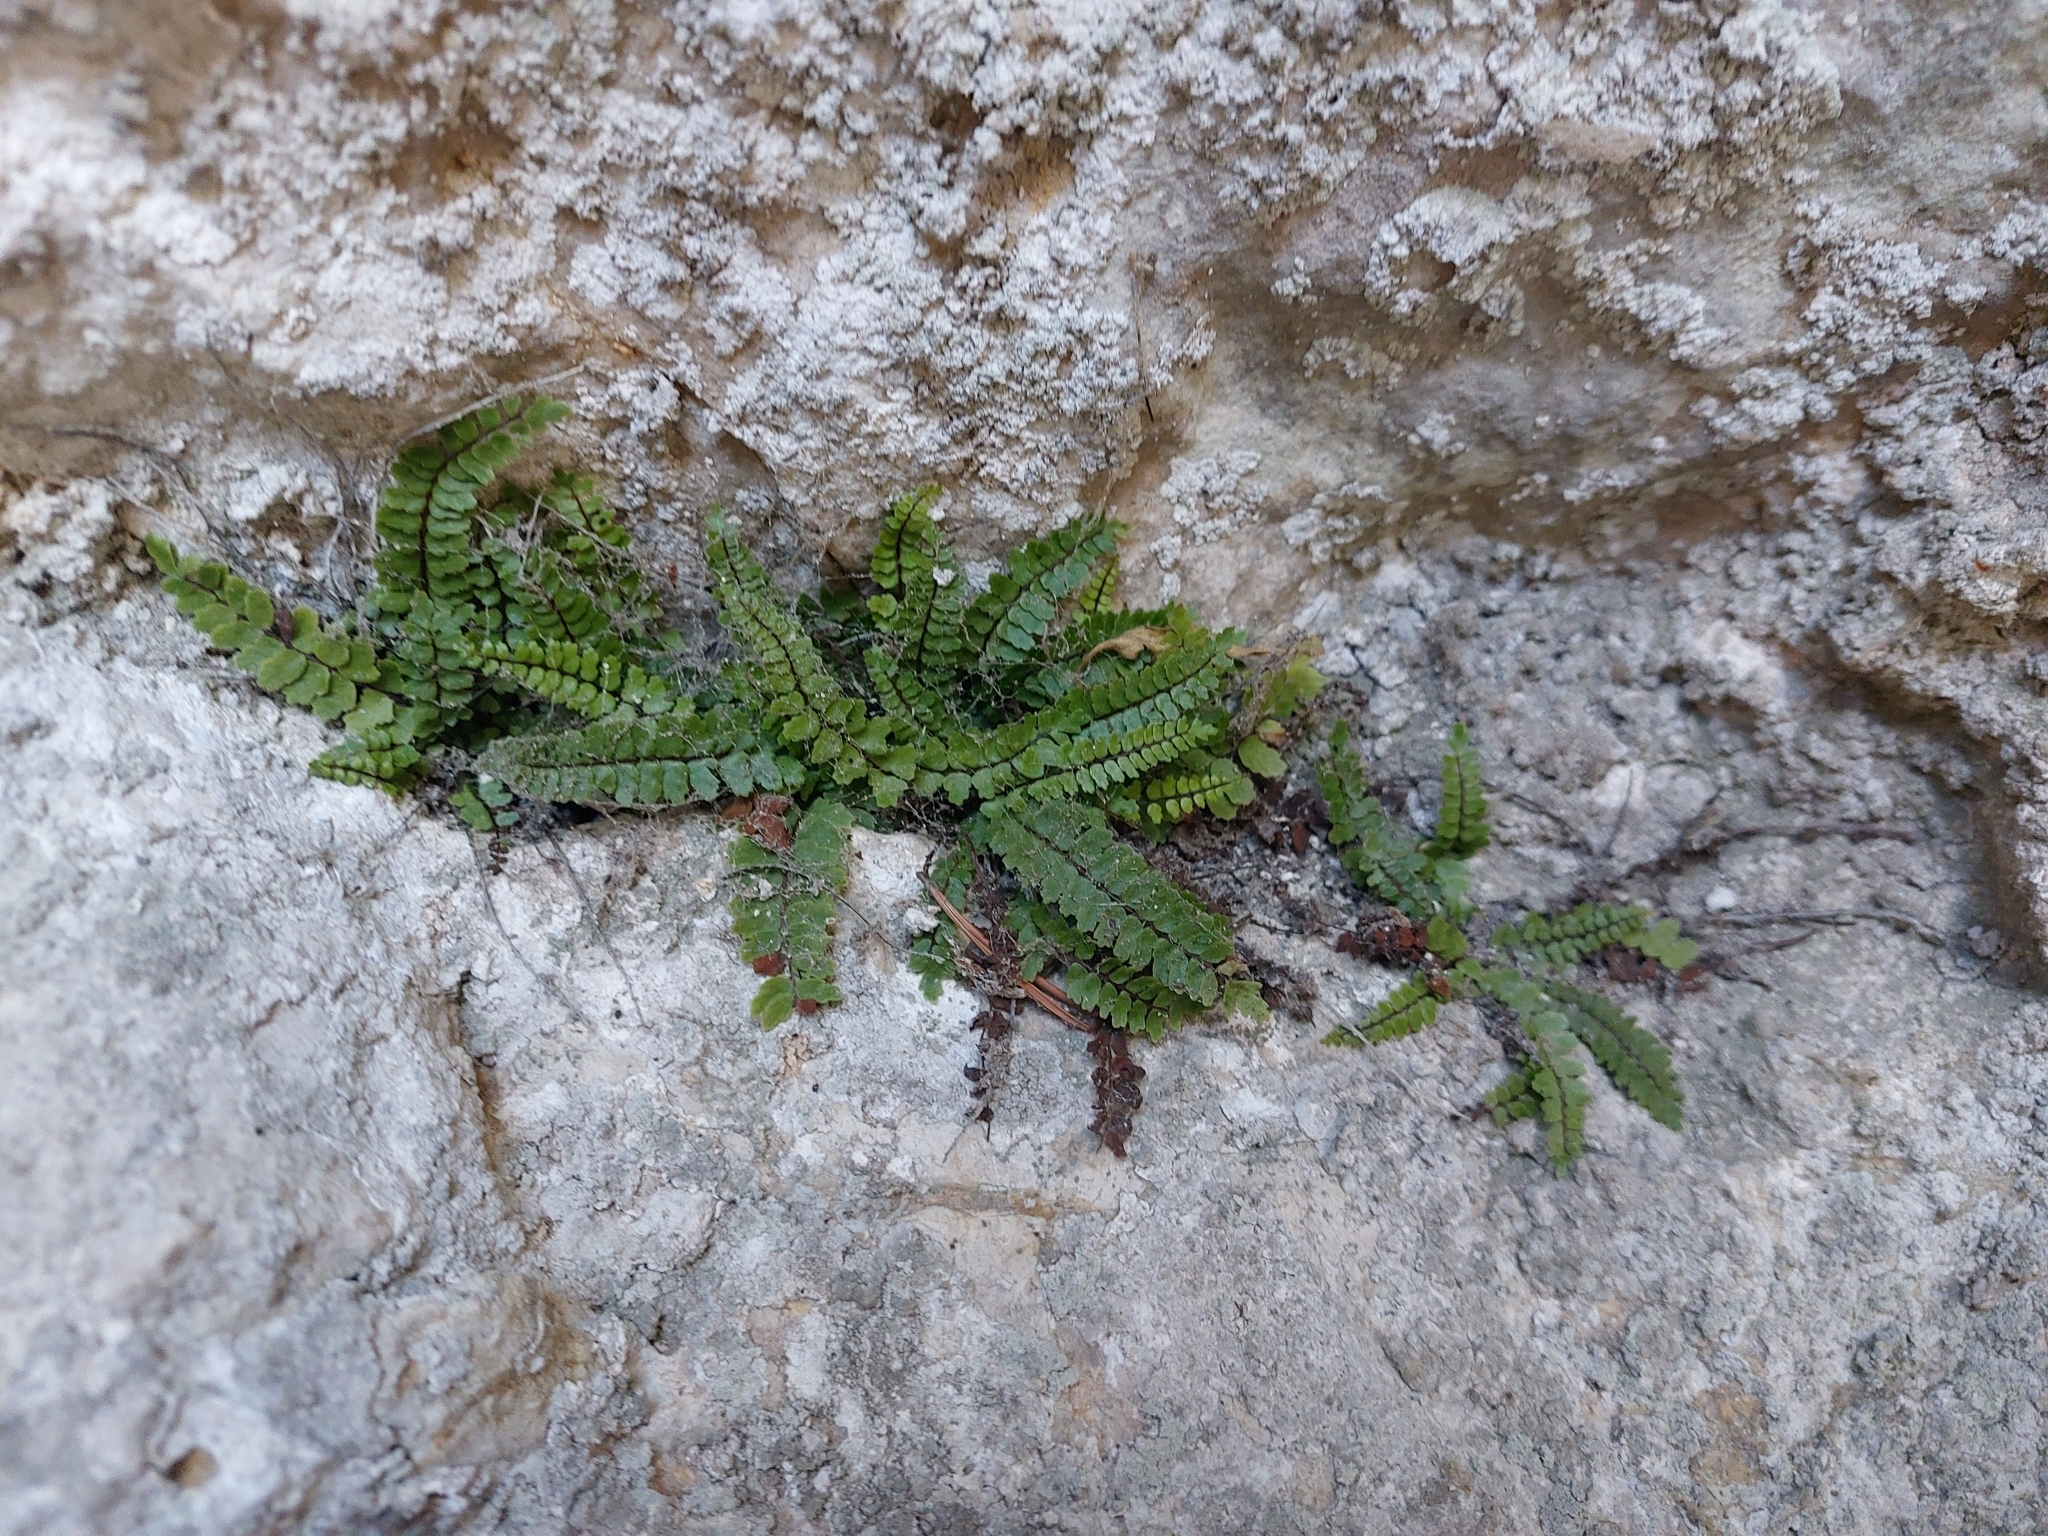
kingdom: Plantae
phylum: Tracheophyta
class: Polypodiopsida
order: Polypodiales
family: Aspleniaceae
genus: Asplenium
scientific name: Asplenium trichomanes
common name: Maidenhair spleenwort
